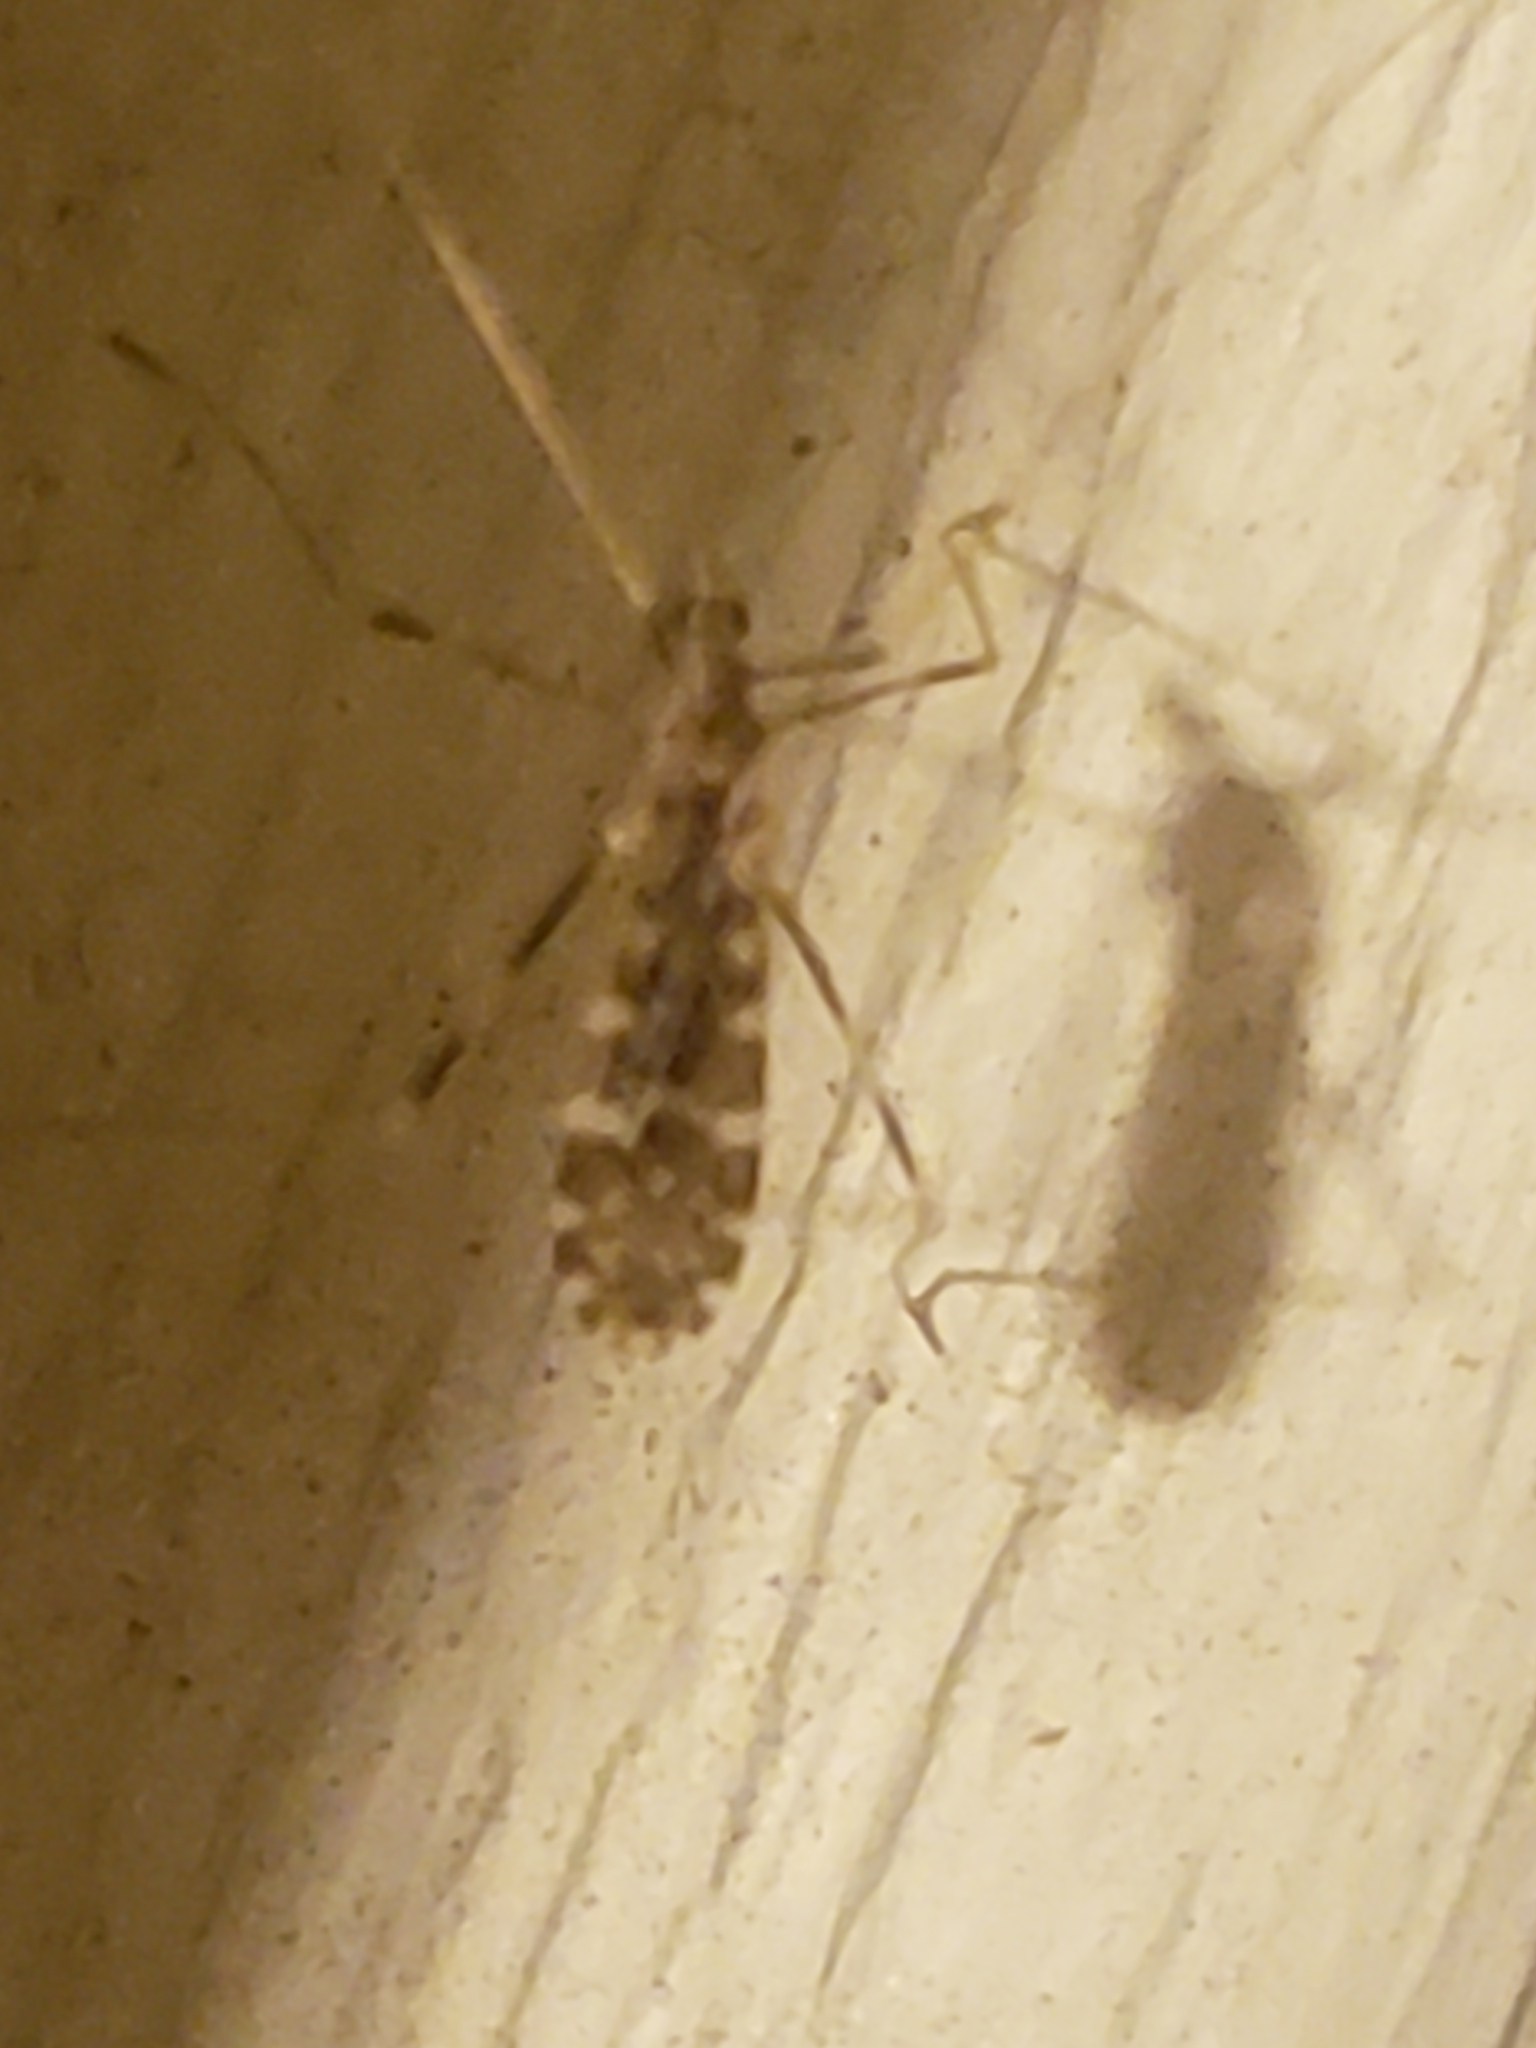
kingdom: Animalia
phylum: Arthropoda
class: Insecta
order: Diptera
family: Limoniidae
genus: Erioptera
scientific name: Erioptera caliptera
